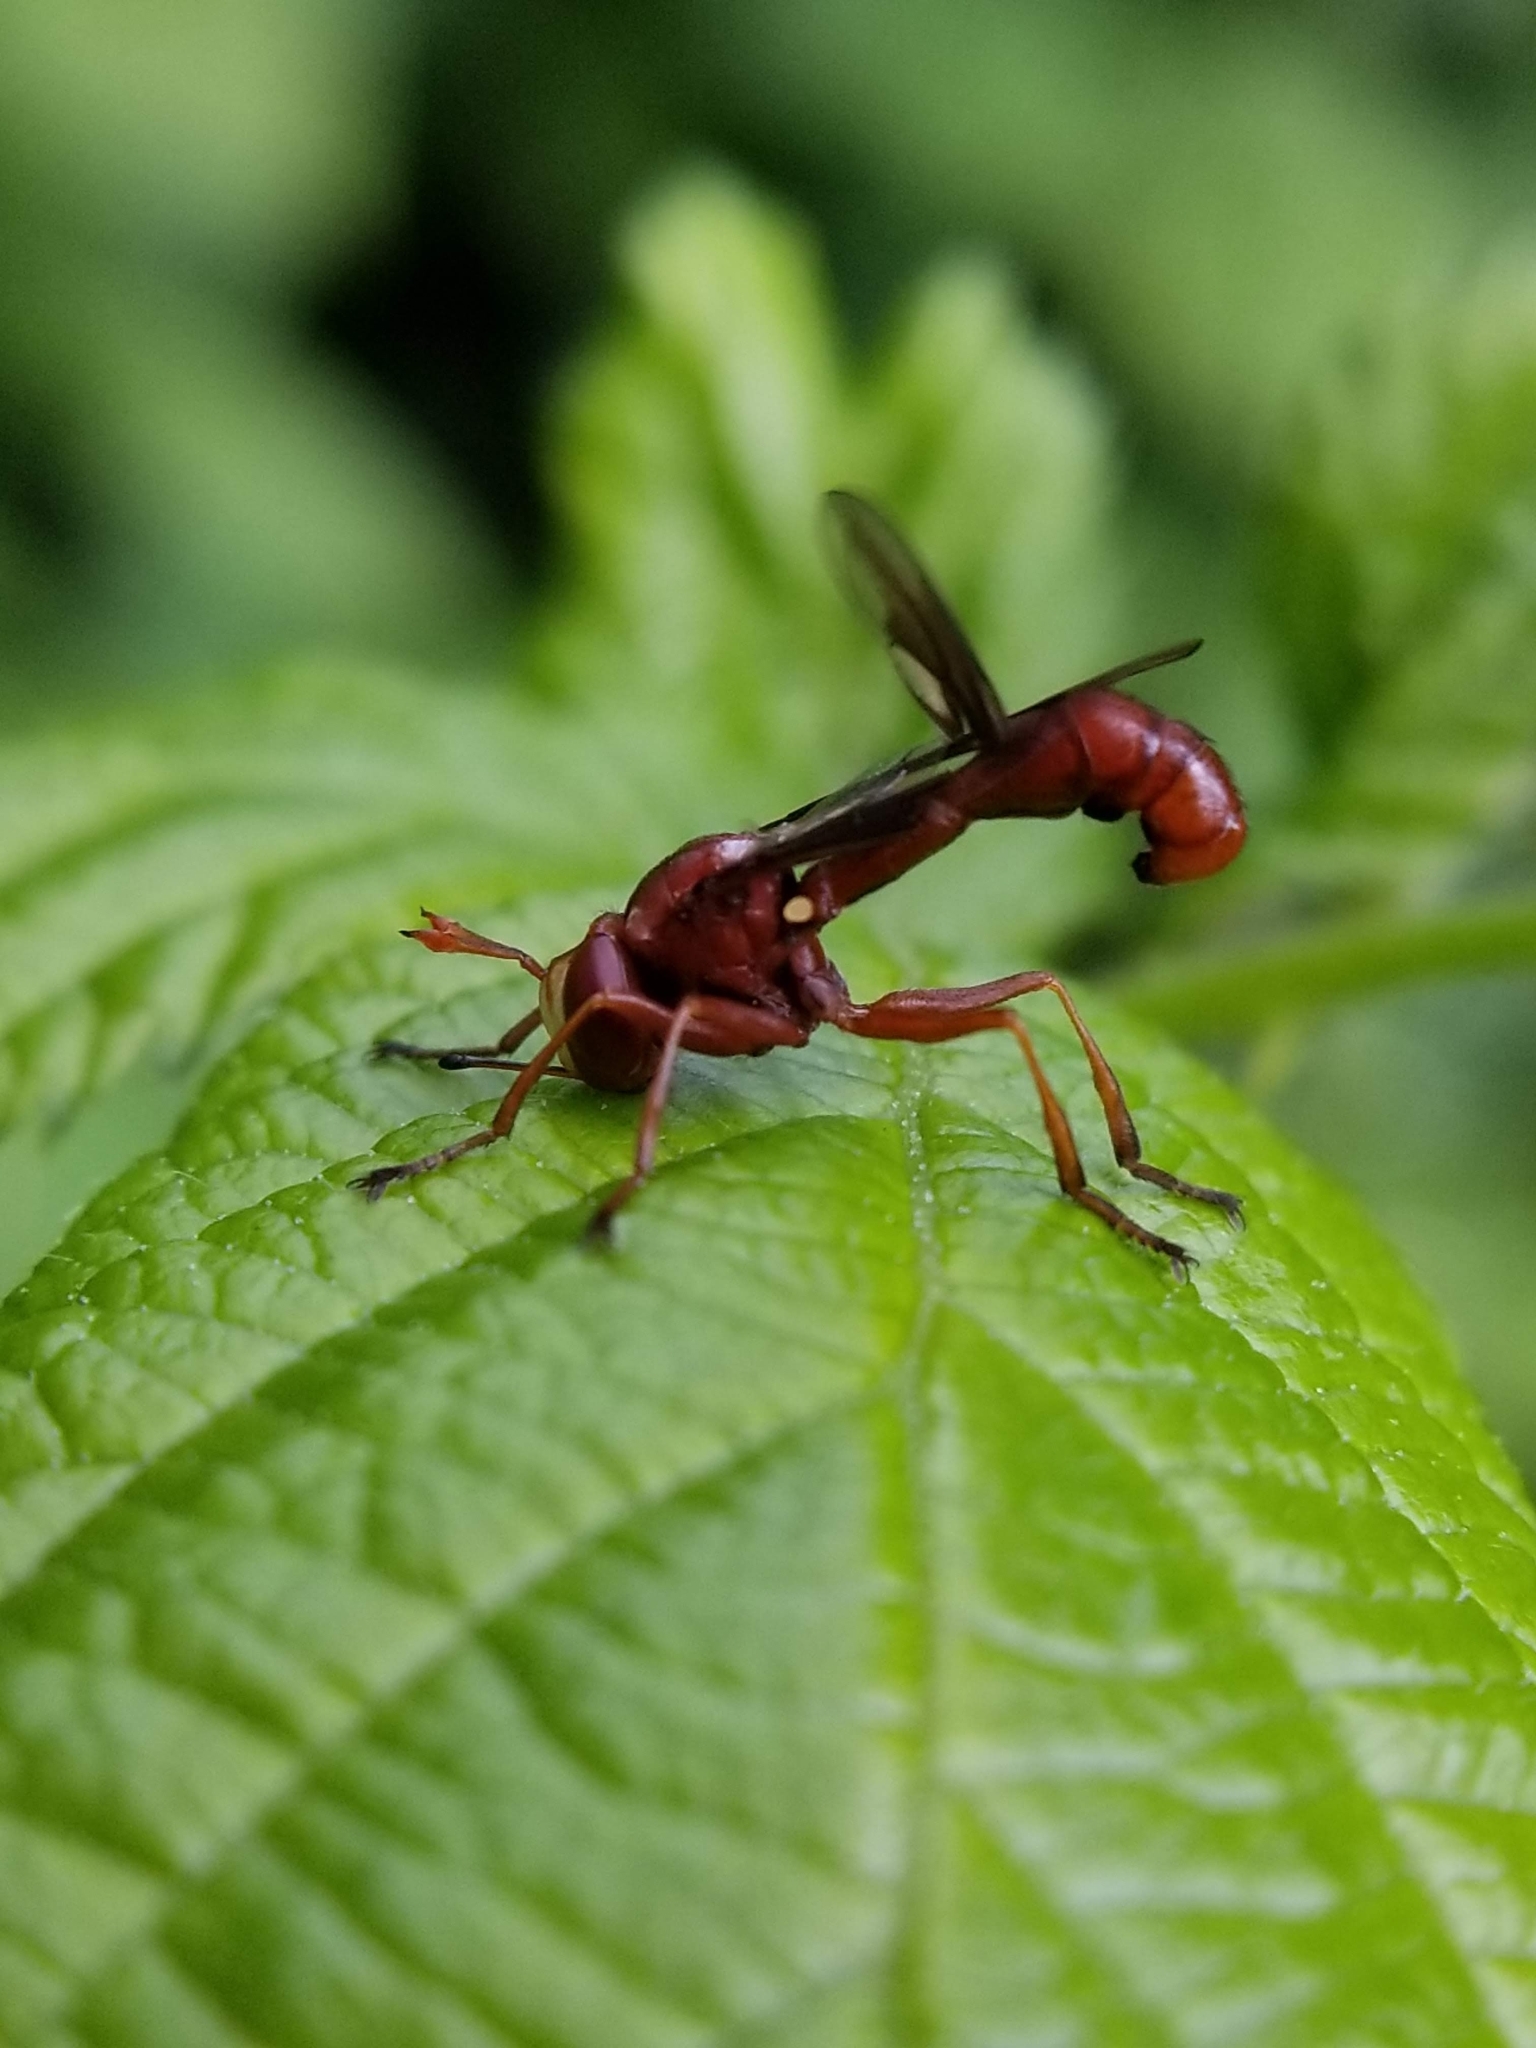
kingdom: Animalia
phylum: Arthropoda
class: Insecta
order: Diptera
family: Conopidae
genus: Physocephala
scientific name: Physocephala burgessi
